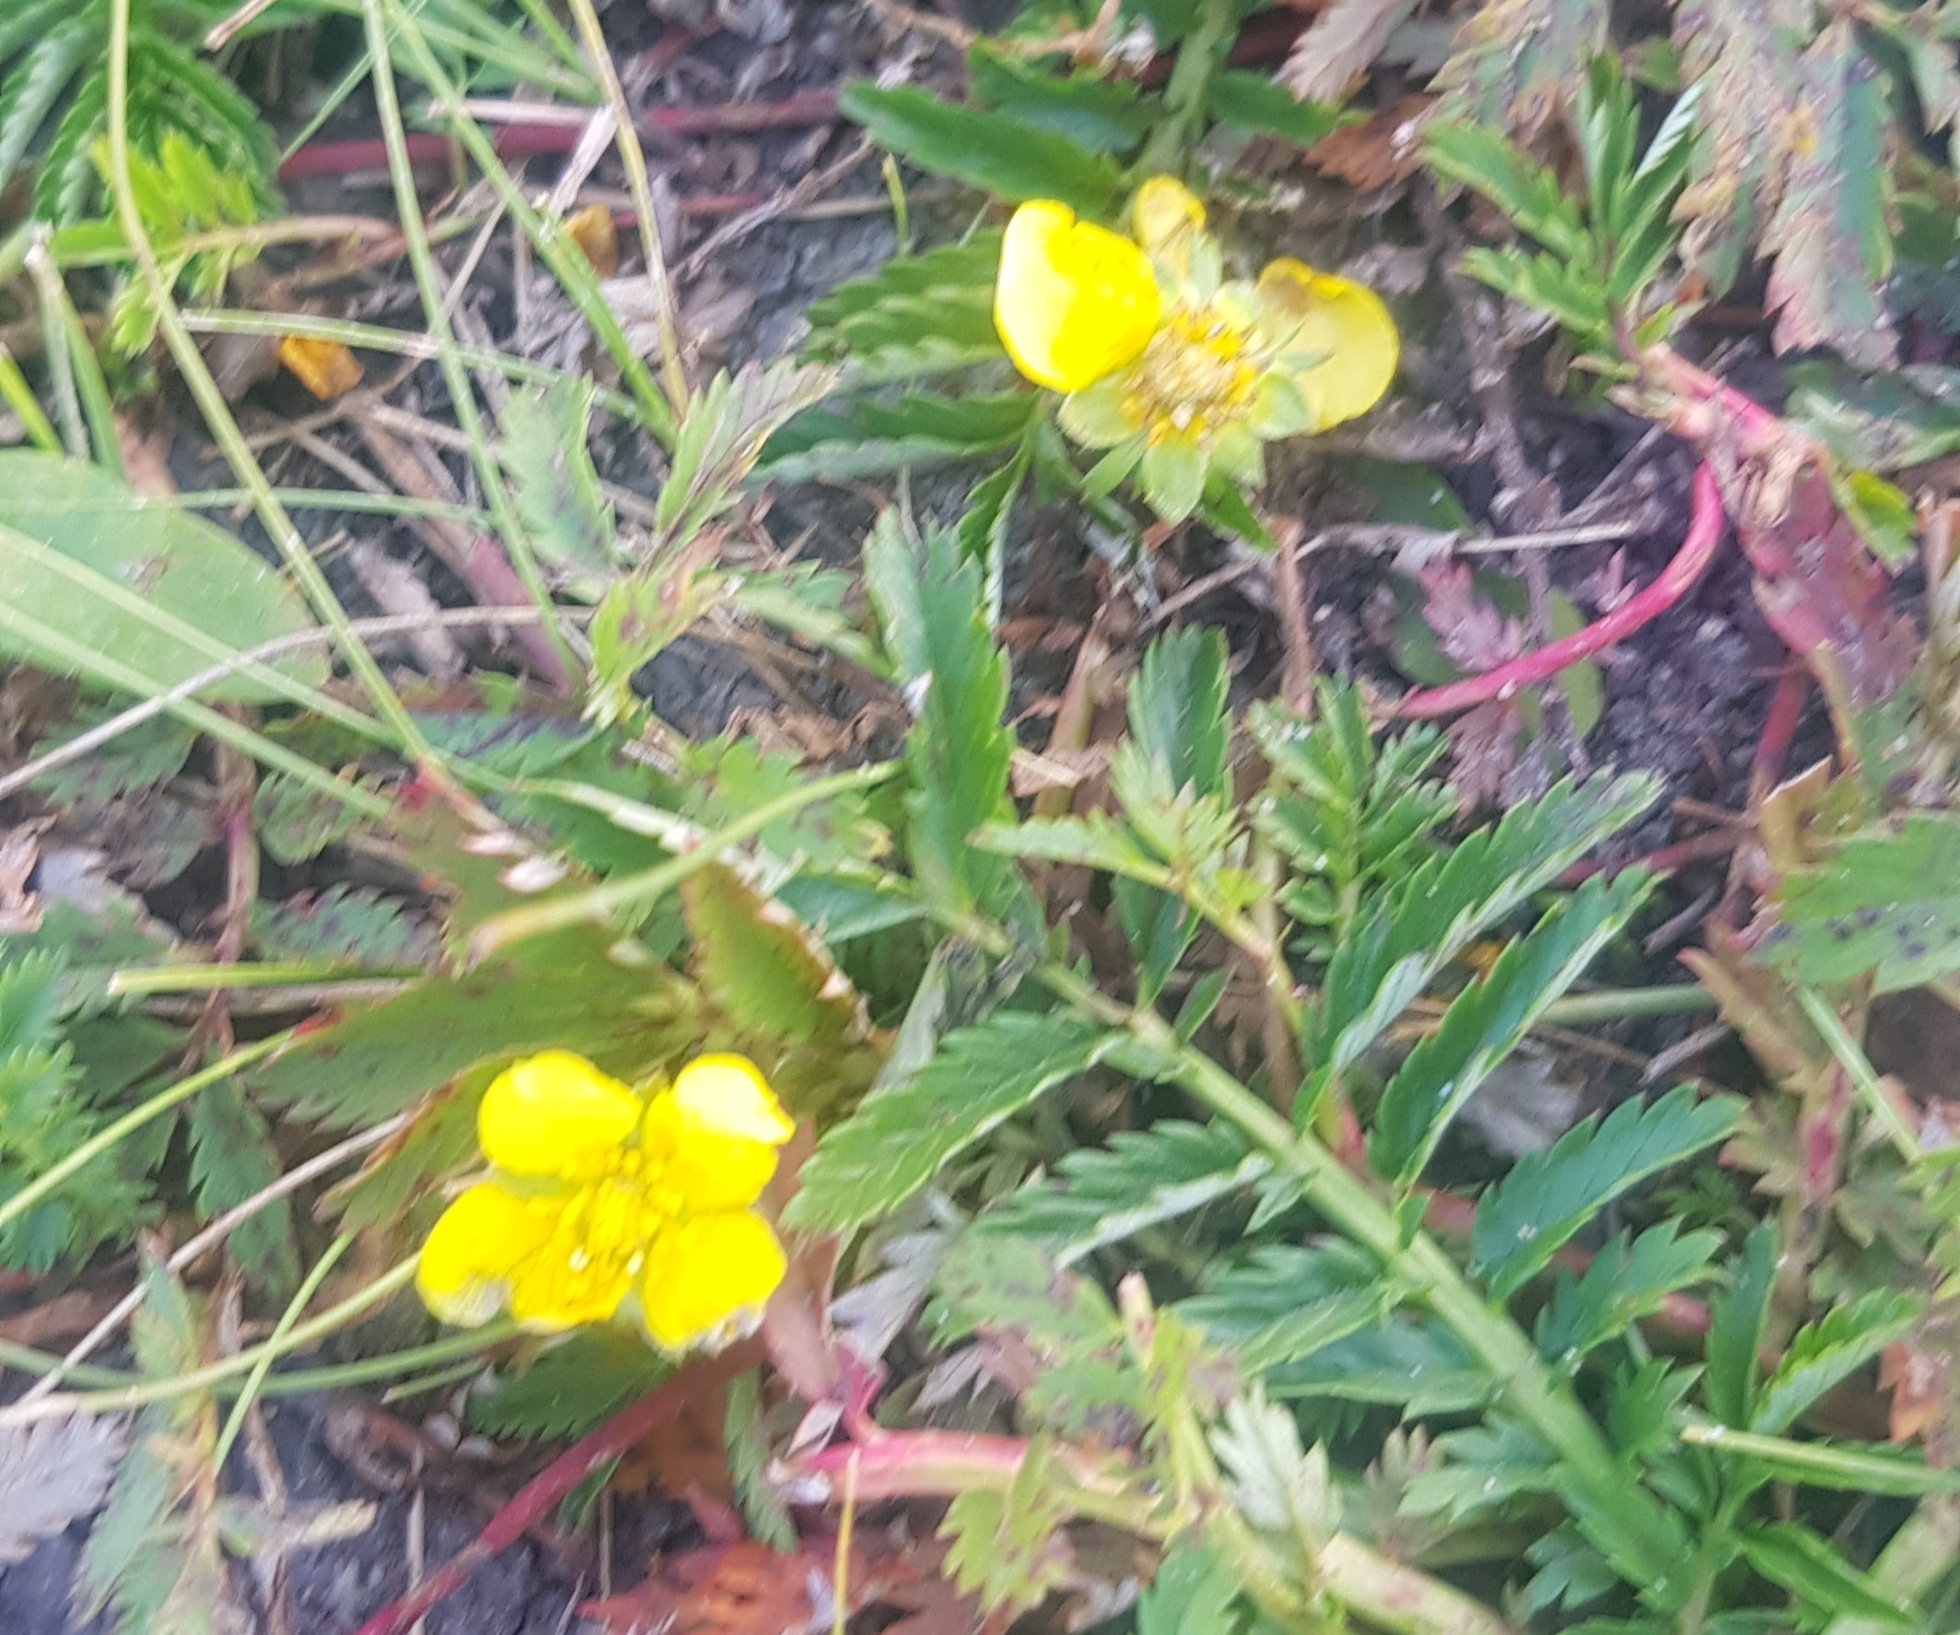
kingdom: Plantae
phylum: Tracheophyta
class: Magnoliopsida
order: Rosales
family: Rosaceae
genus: Argentina
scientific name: Argentina anserina
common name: Common silverweed
